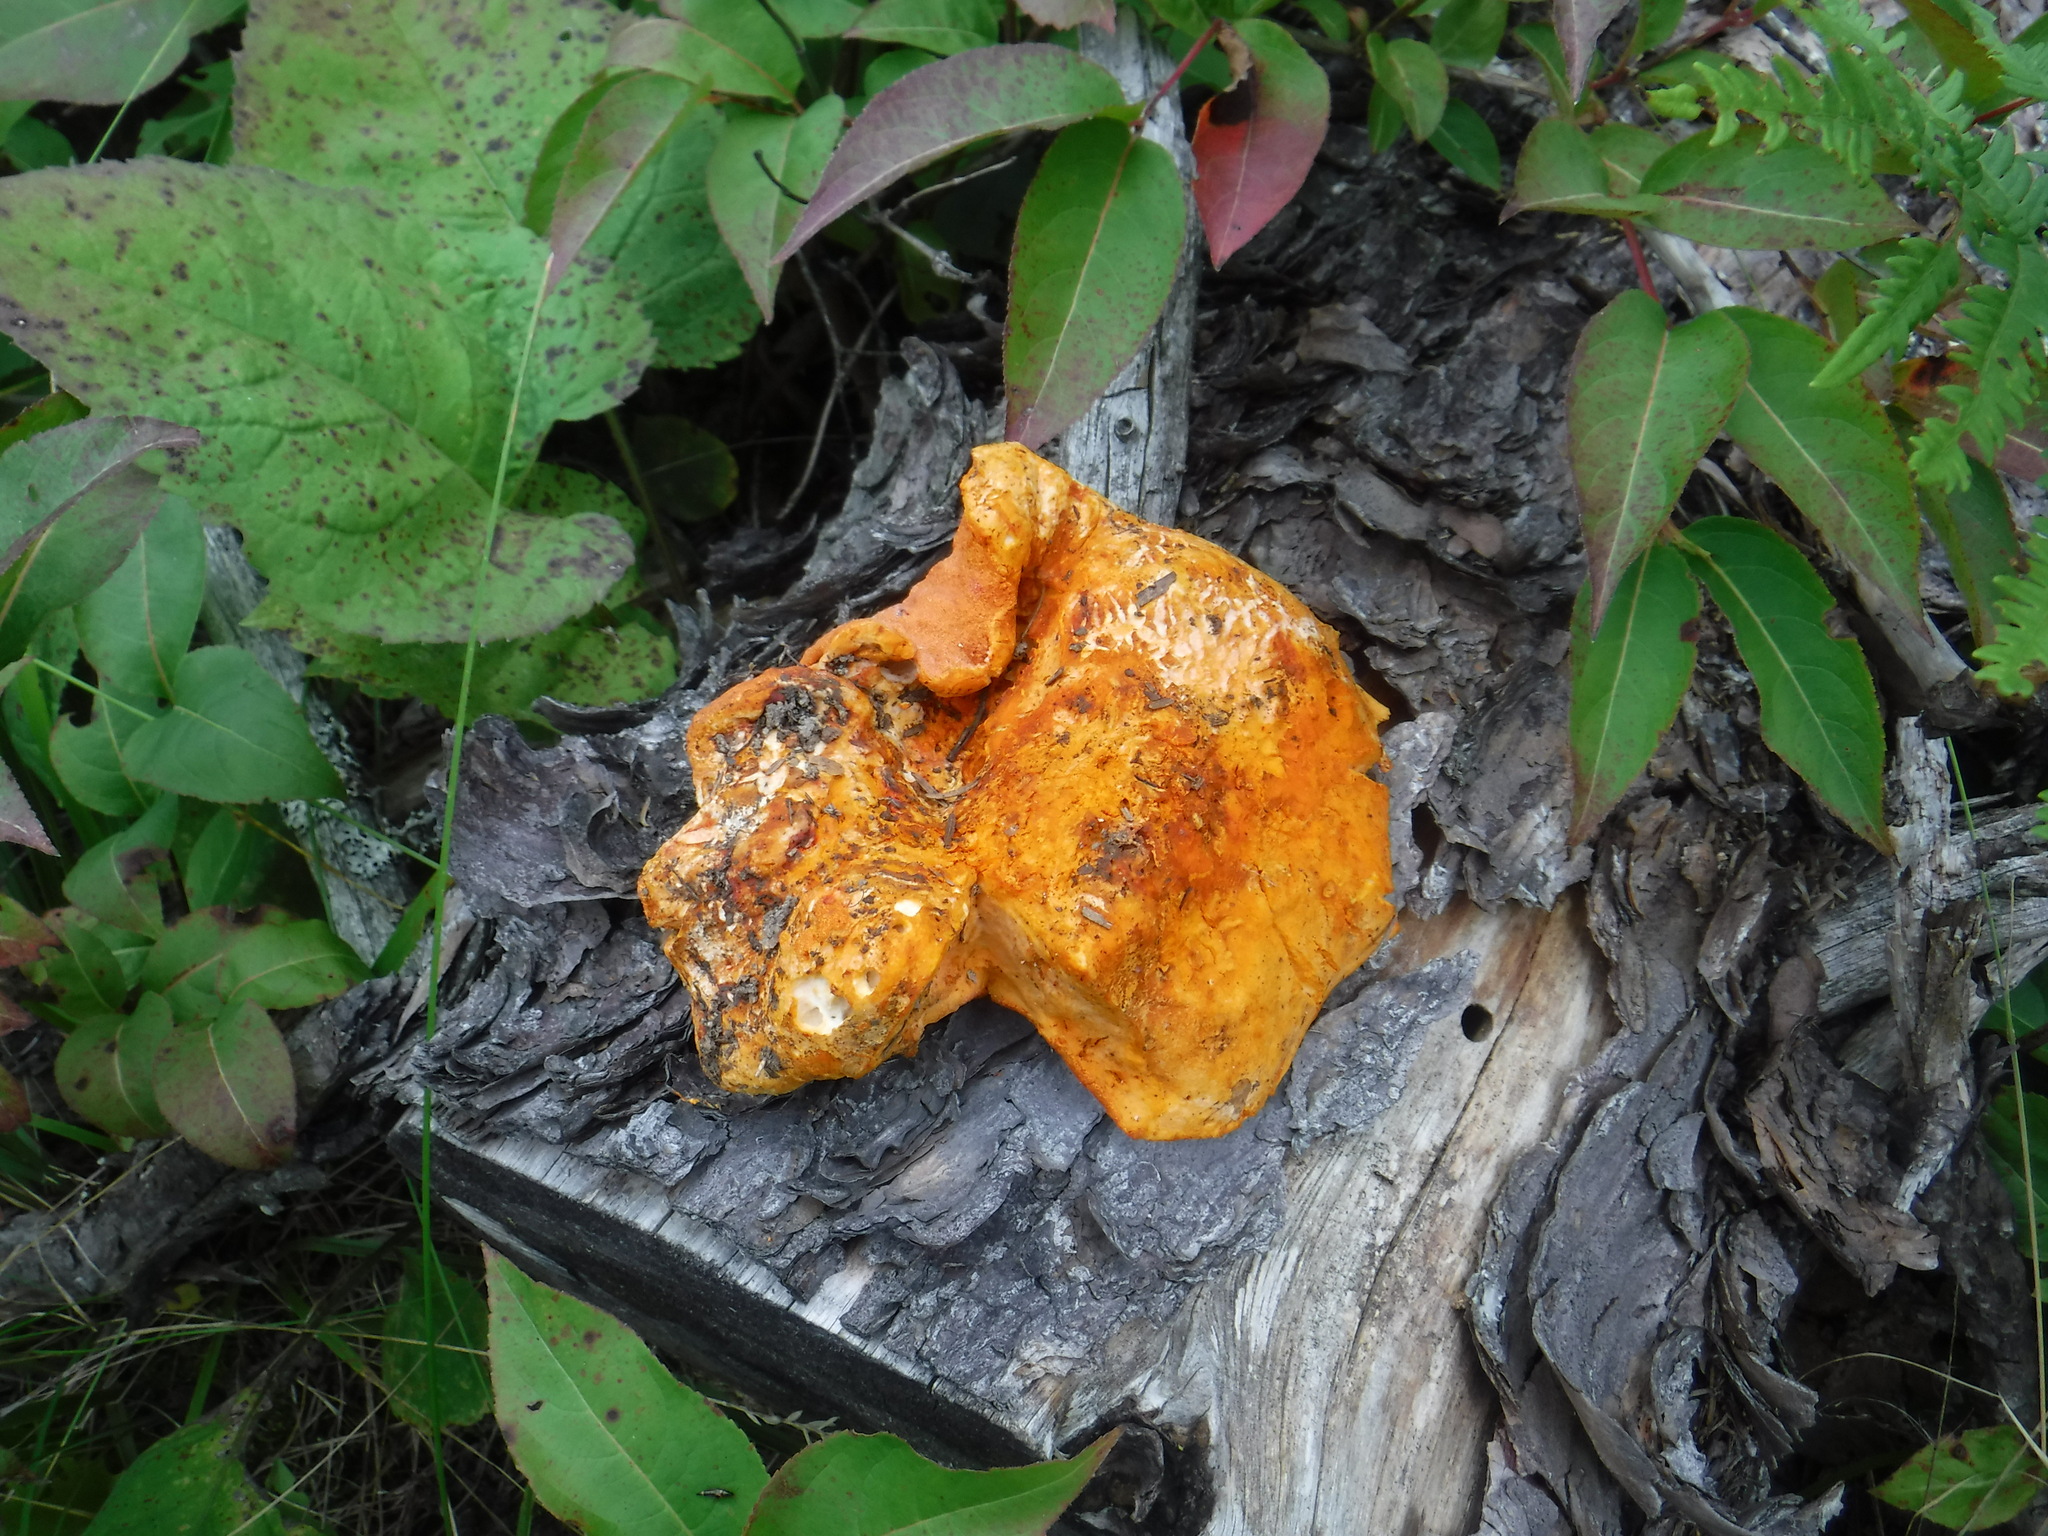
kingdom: Fungi
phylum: Ascomycota
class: Sordariomycetes
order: Hypocreales
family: Hypocreaceae
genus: Hypomyces
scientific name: Hypomyces lactifluorum
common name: Lobster mushroom
